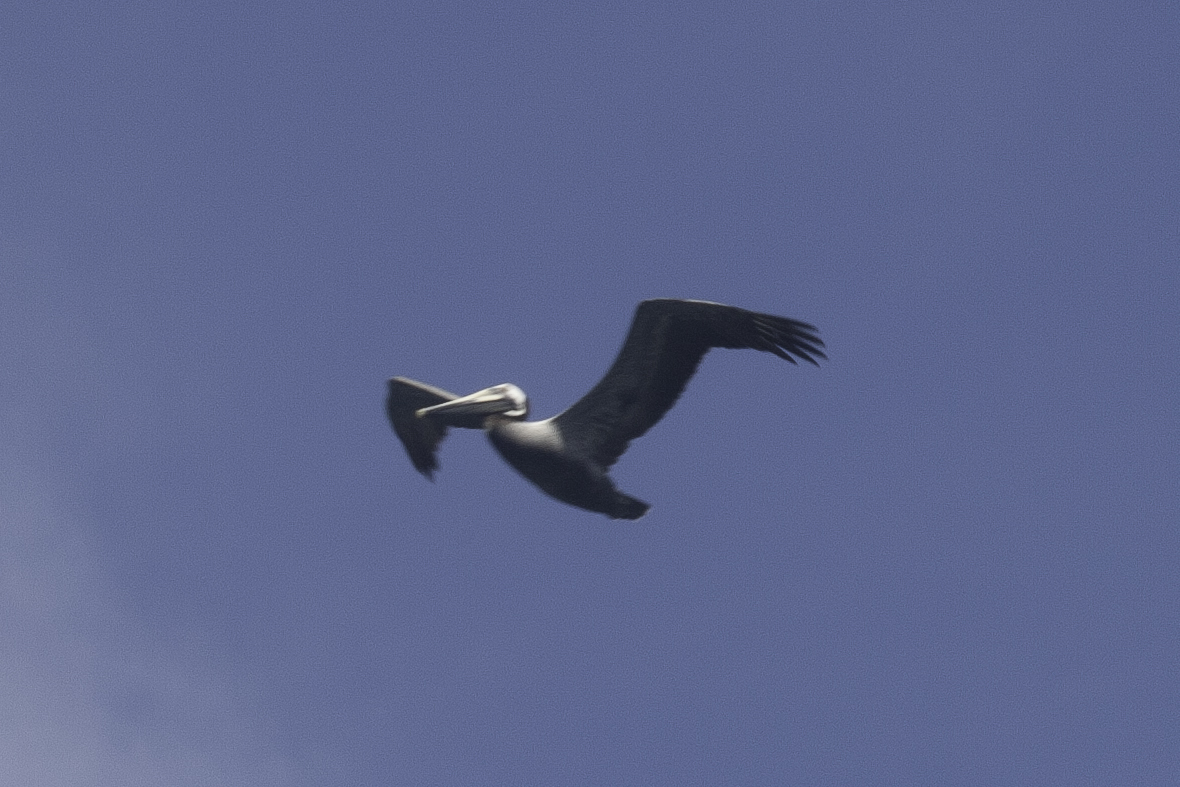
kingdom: Animalia
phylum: Chordata
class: Aves
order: Pelecaniformes
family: Pelecanidae
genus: Pelecanus
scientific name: Pelecanus occidentalis
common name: Brown pelican
